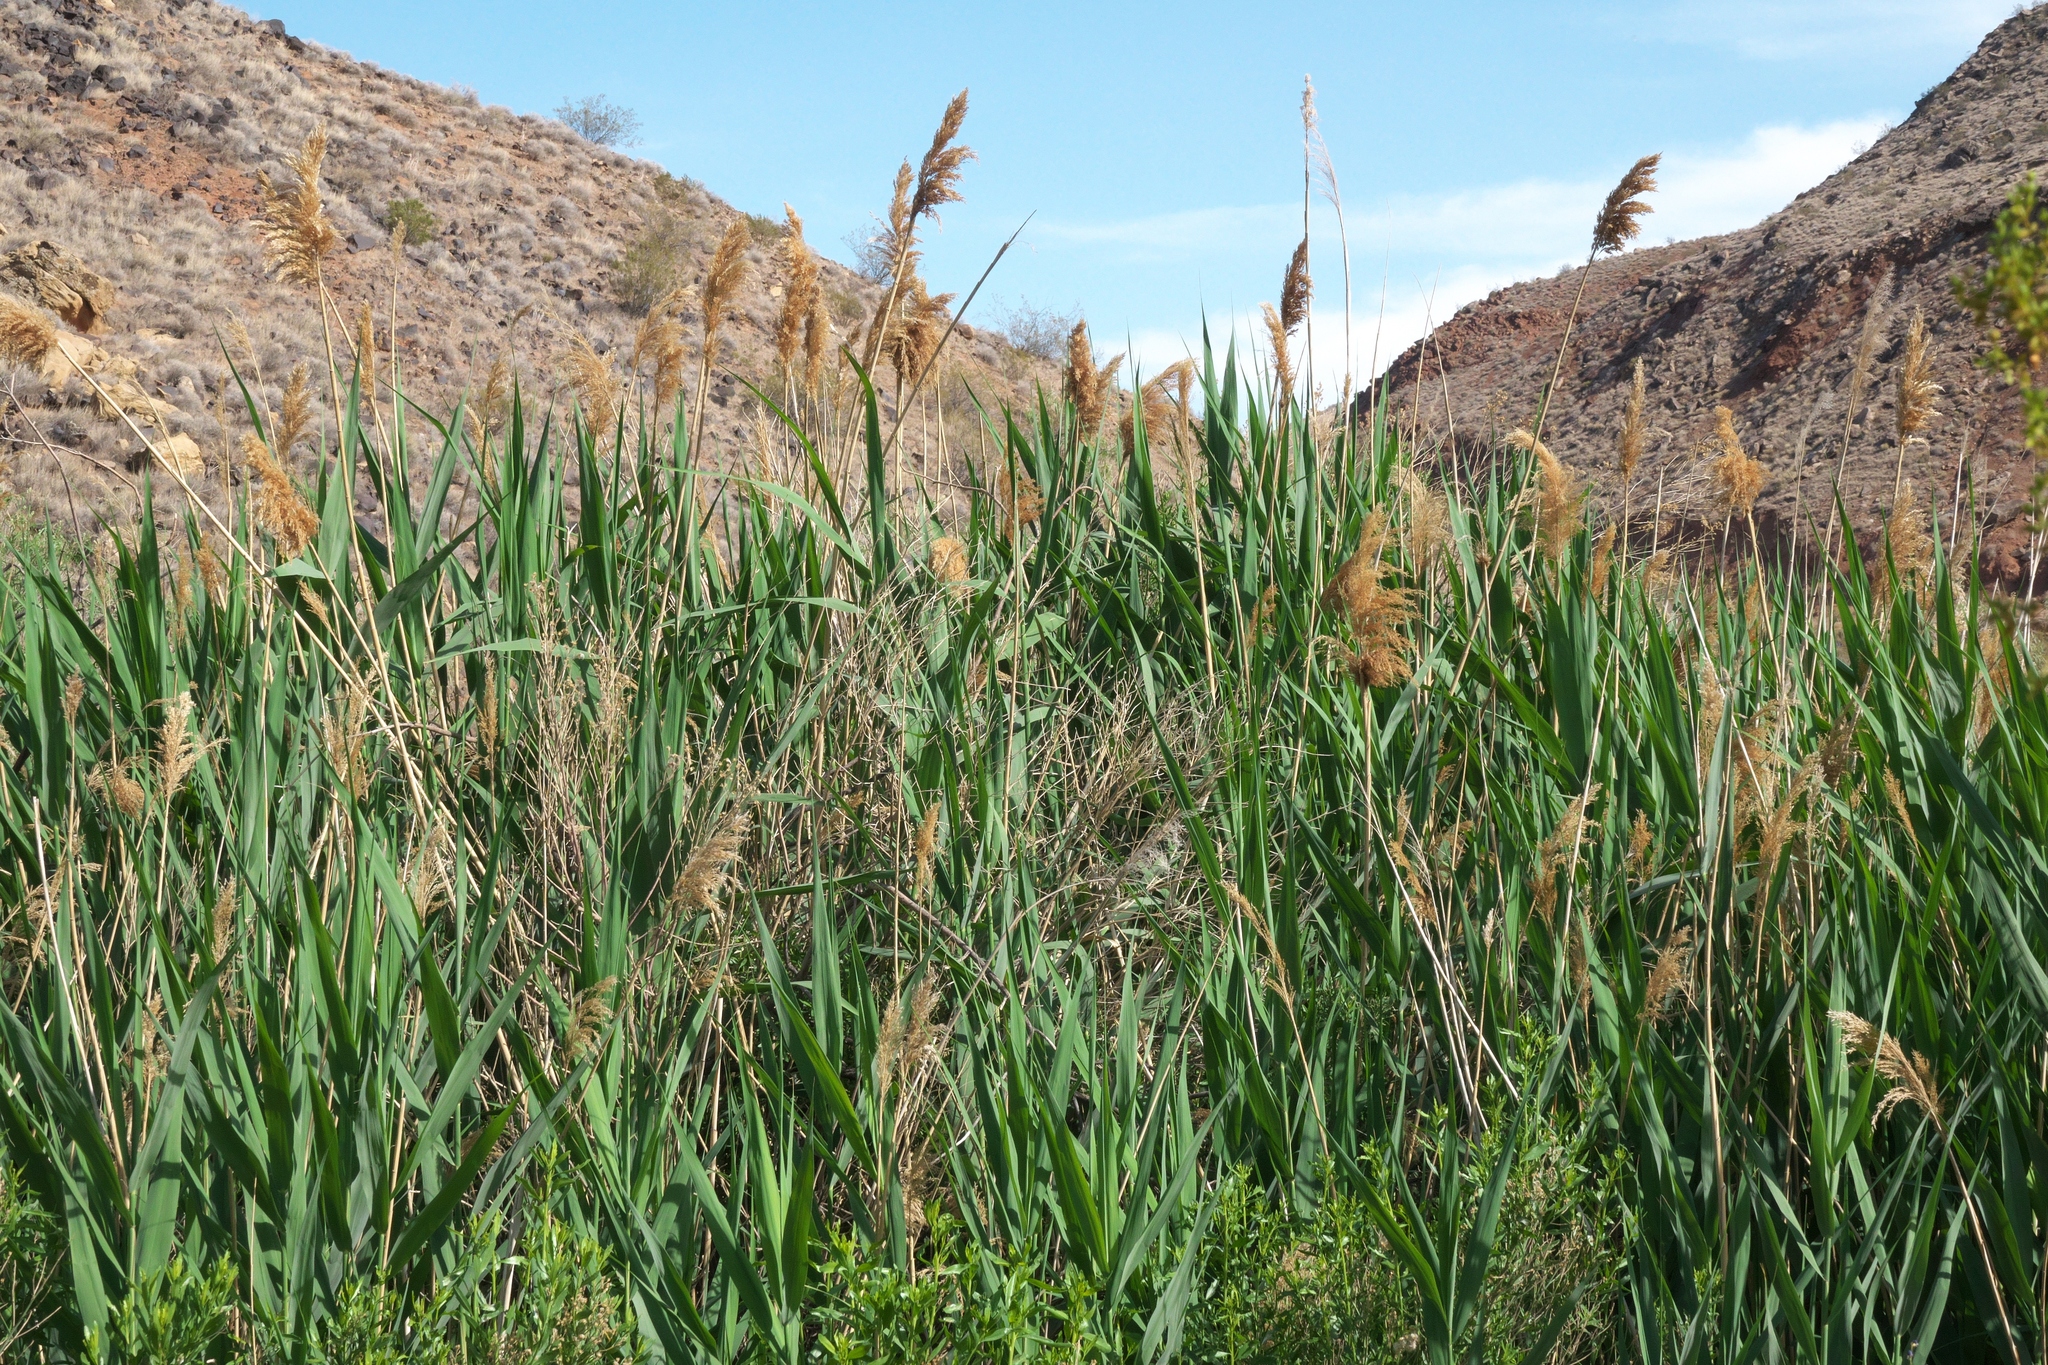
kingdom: Plantae
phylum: Tracheophyta
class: Liliopsida
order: Poales
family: Poaceae
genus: Phragmites
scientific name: Phragmites australis
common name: Common reed
